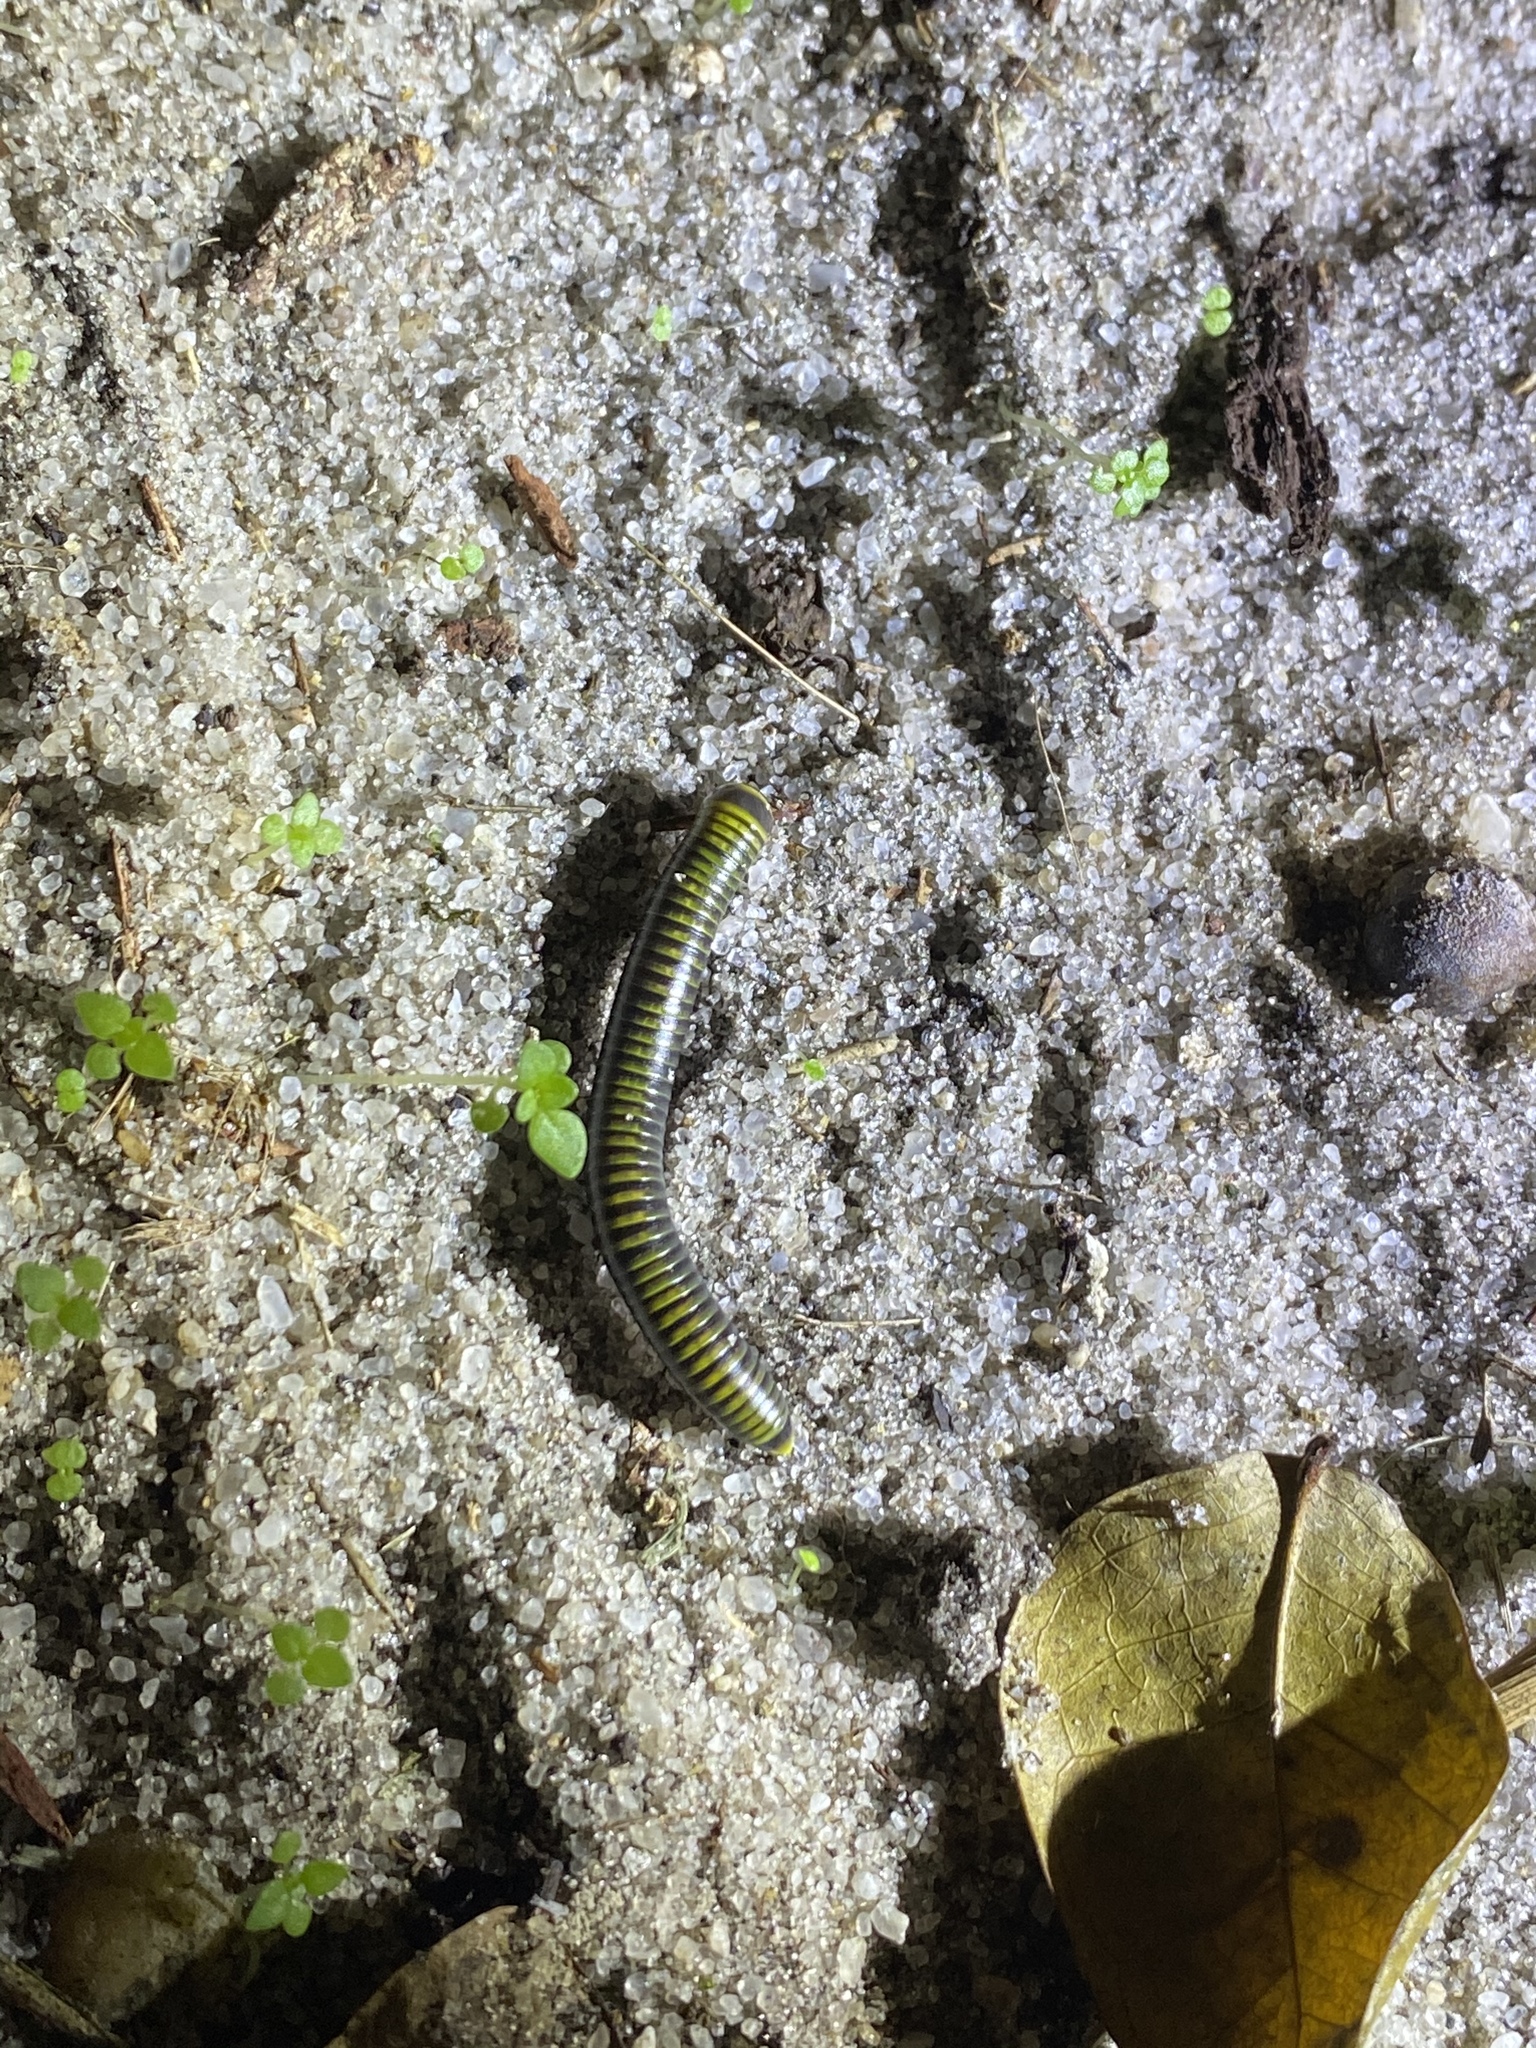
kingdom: Animalia
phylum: Arthropoda
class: Diplopoda
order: Spirobolida
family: Rhinocricidae
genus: Anadenobolus
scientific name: Anadenobolus monilicornis
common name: Caribbean millipede
